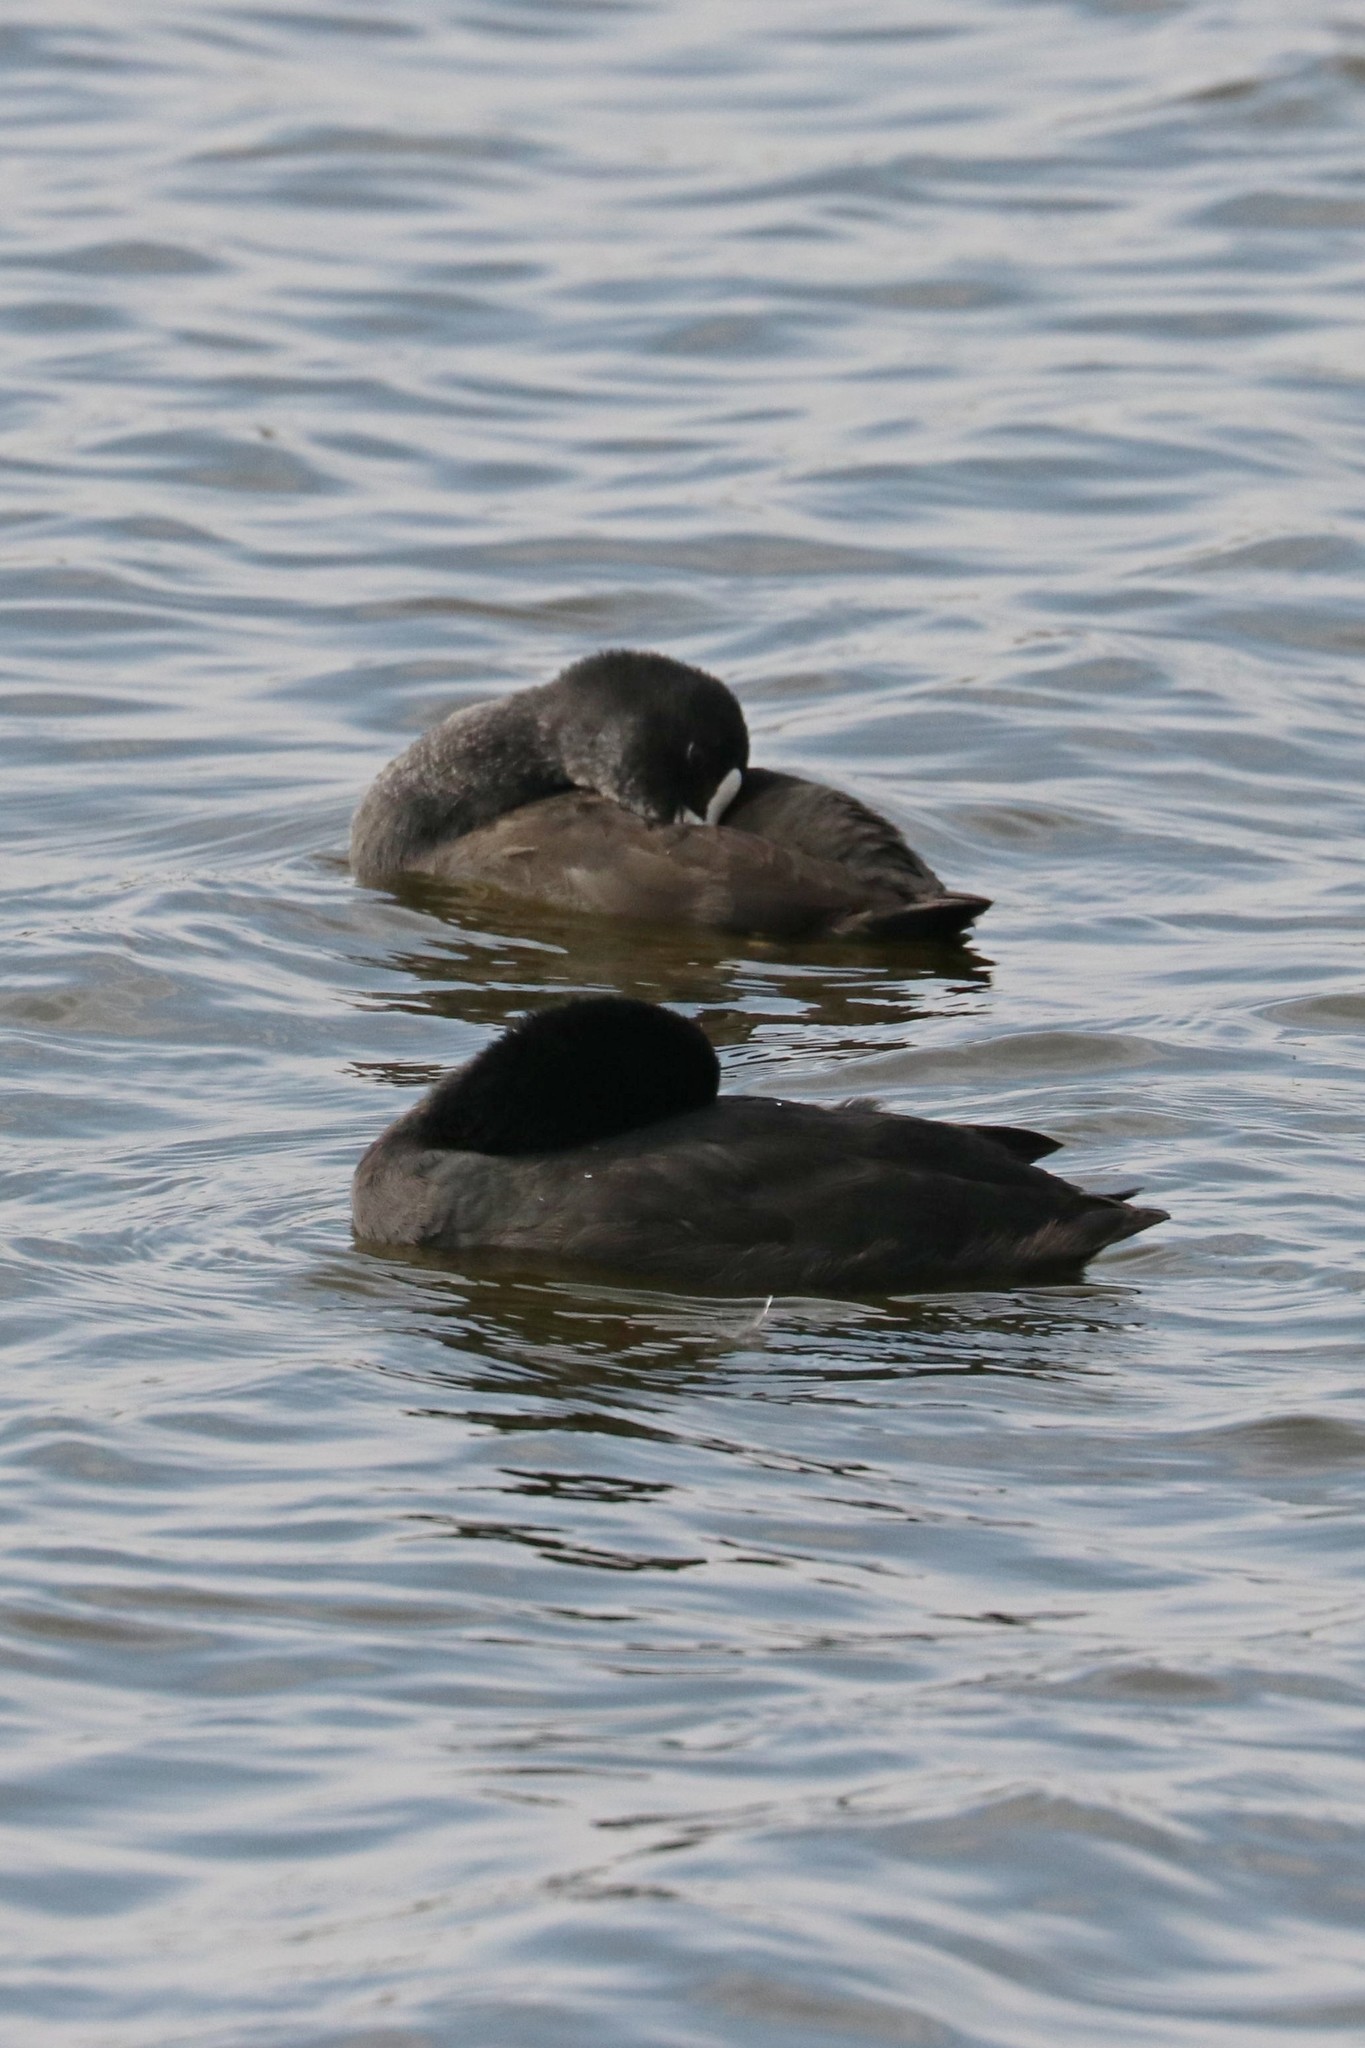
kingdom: Animalia
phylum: Chordata
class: Aves
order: Gruiformes
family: Rallidae
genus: Fulica
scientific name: Fulica atra
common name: Eurasian coot
